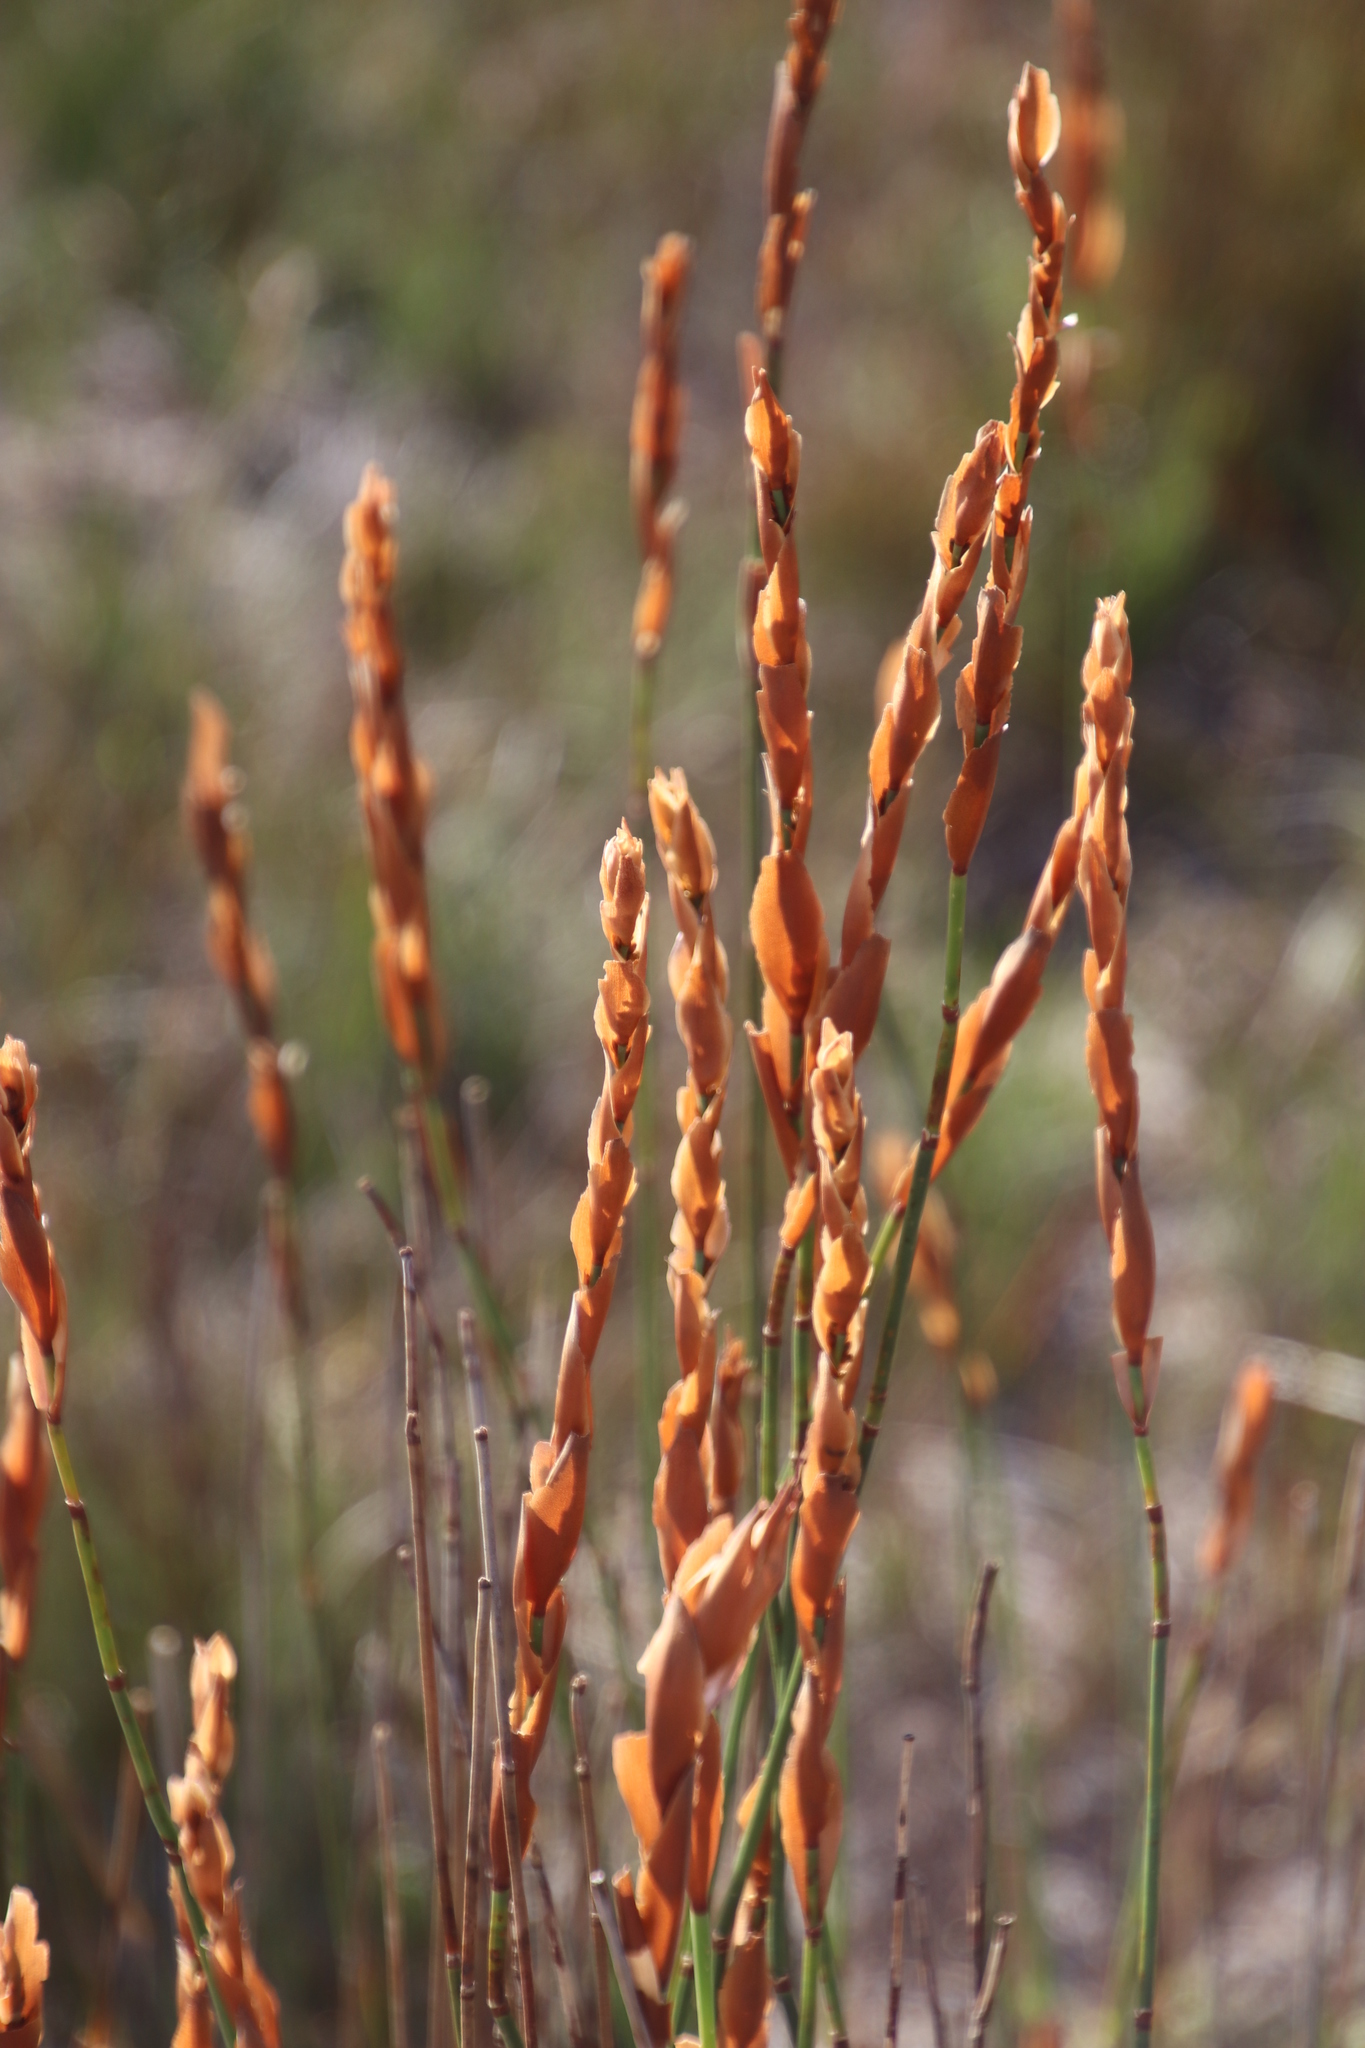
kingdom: Plantae
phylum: Tracheophyta
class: Liliopsida
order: Poales
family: Restionaceae
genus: Elegia
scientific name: Elegia racemosa
